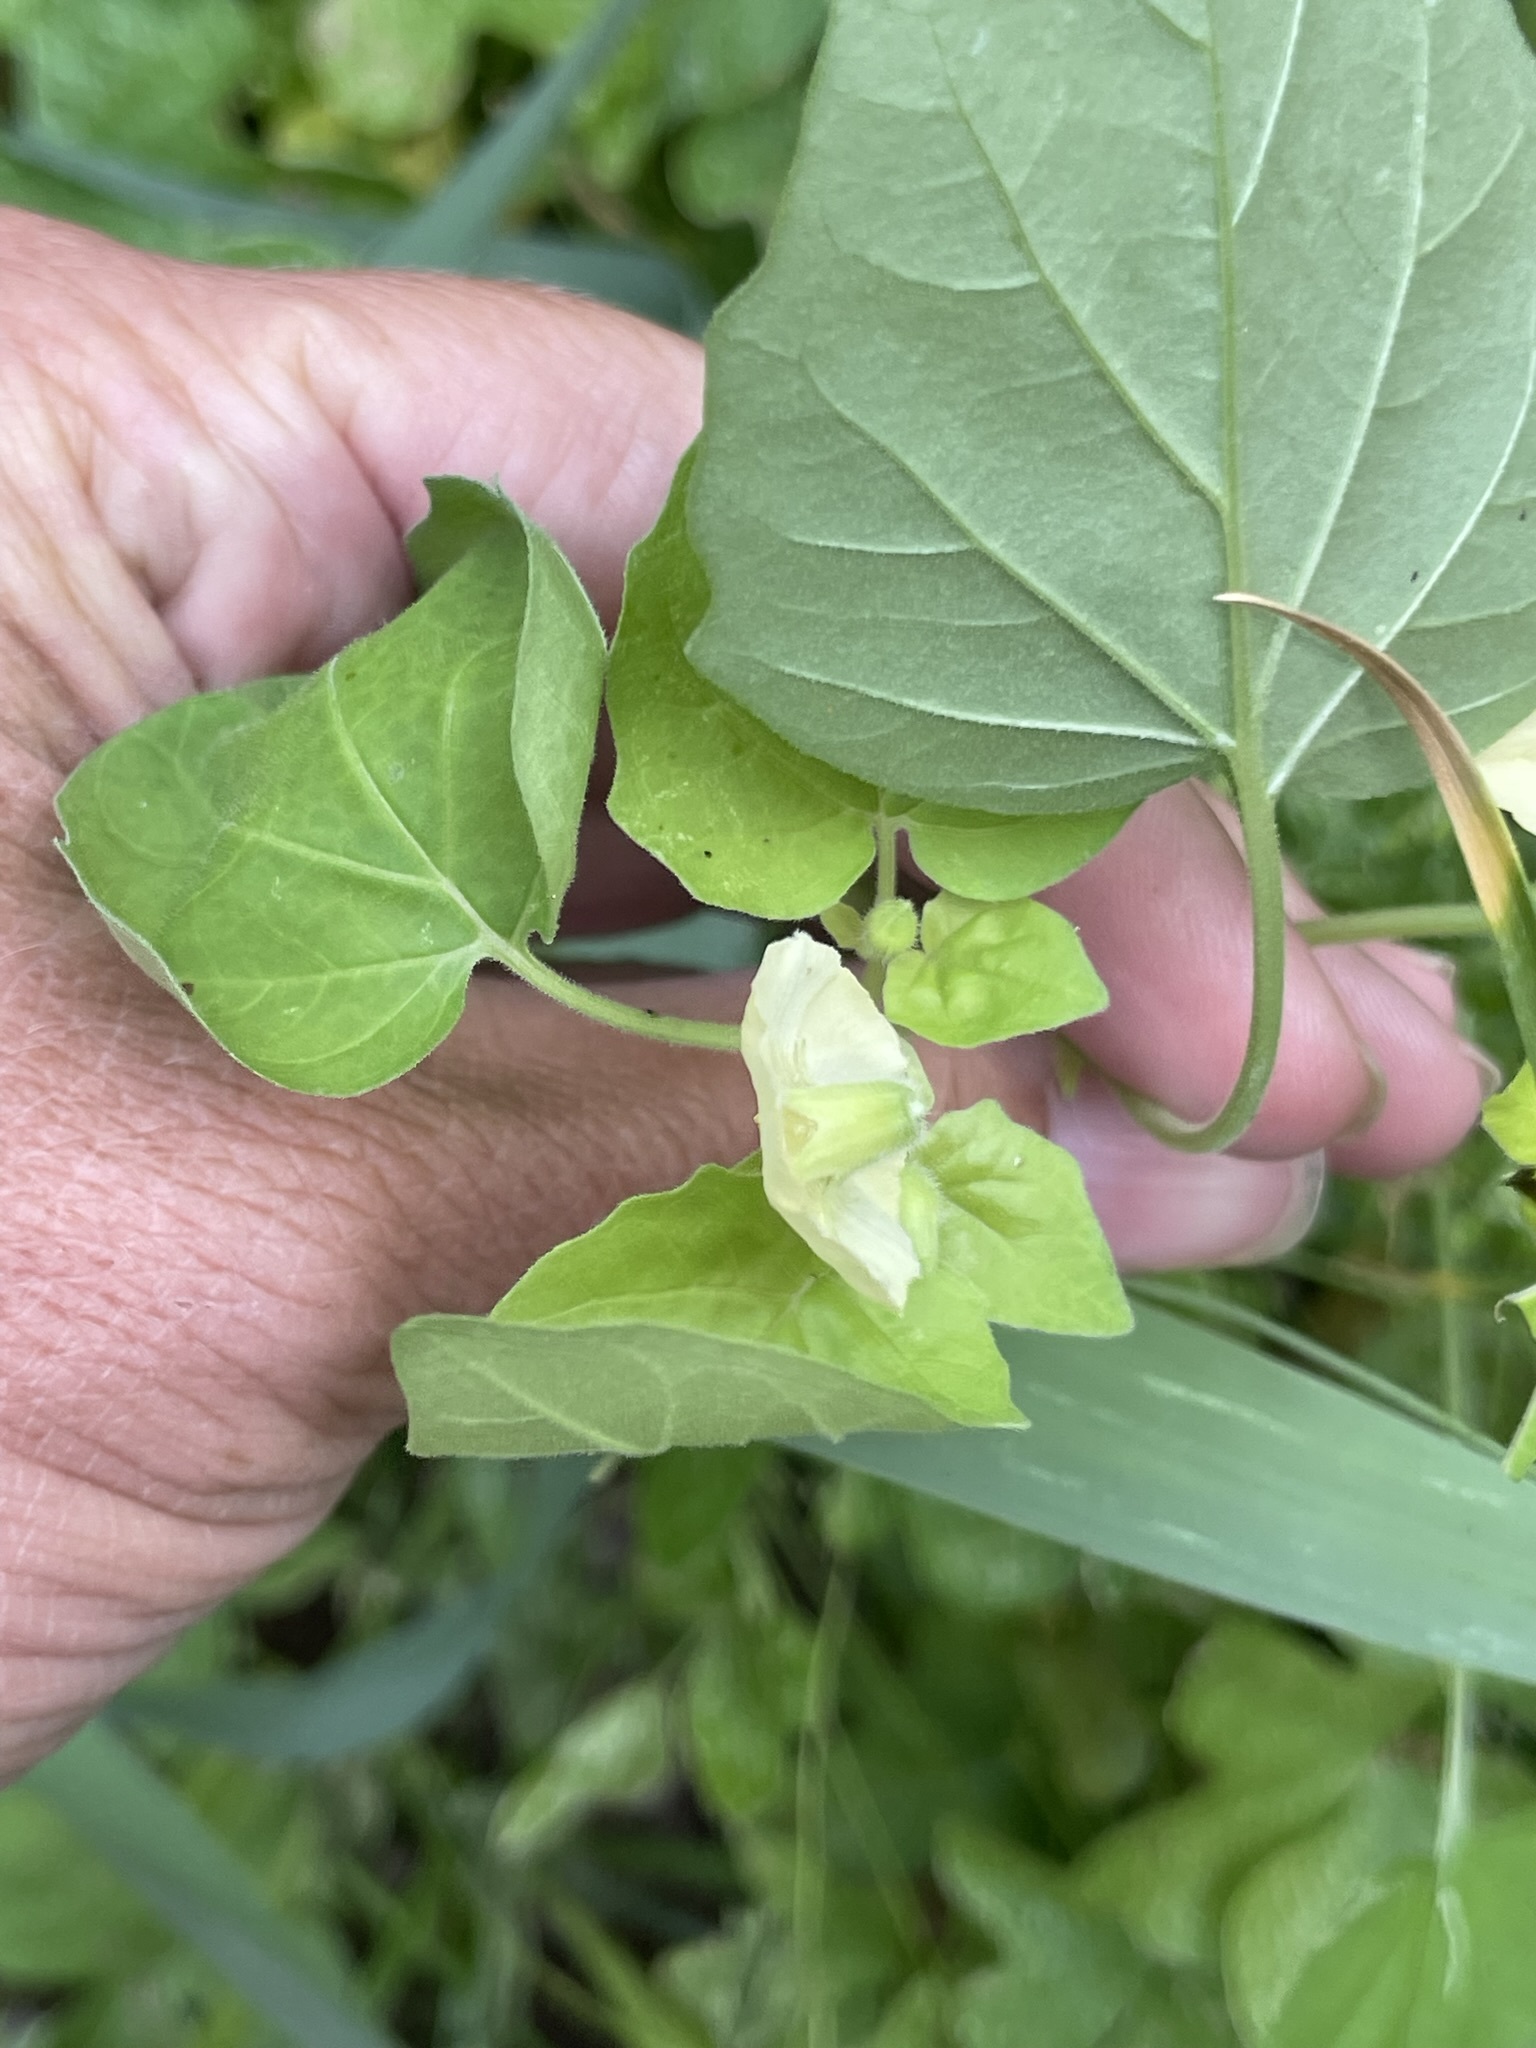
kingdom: Plantae
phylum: Tracheophyta
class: Magnoliopsida
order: Solanales
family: Solanaceae
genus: Physalis
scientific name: Physalis crassifolia
